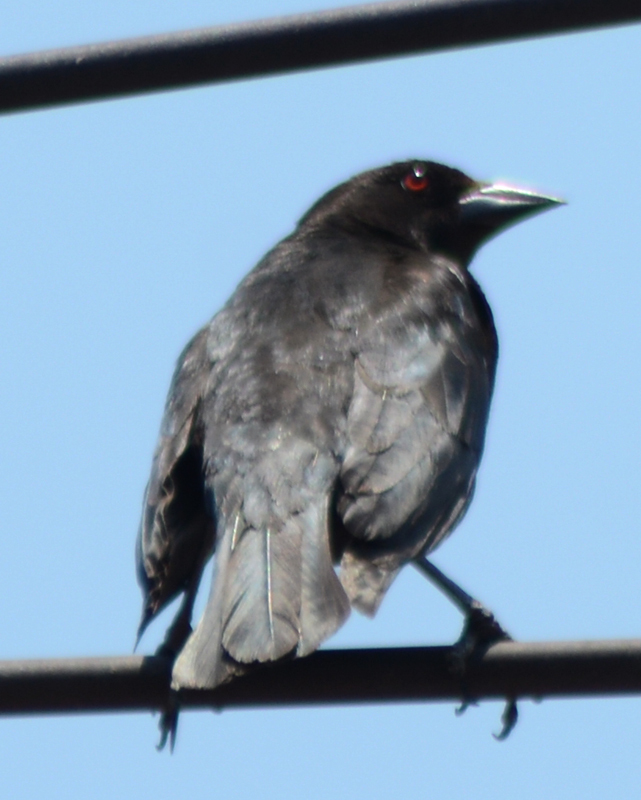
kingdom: Animalia
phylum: Chordata
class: Aves
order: Passeriformes
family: Icteridae
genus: Molothrus
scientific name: Molothrus aeneus
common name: Bronzed cowbird
